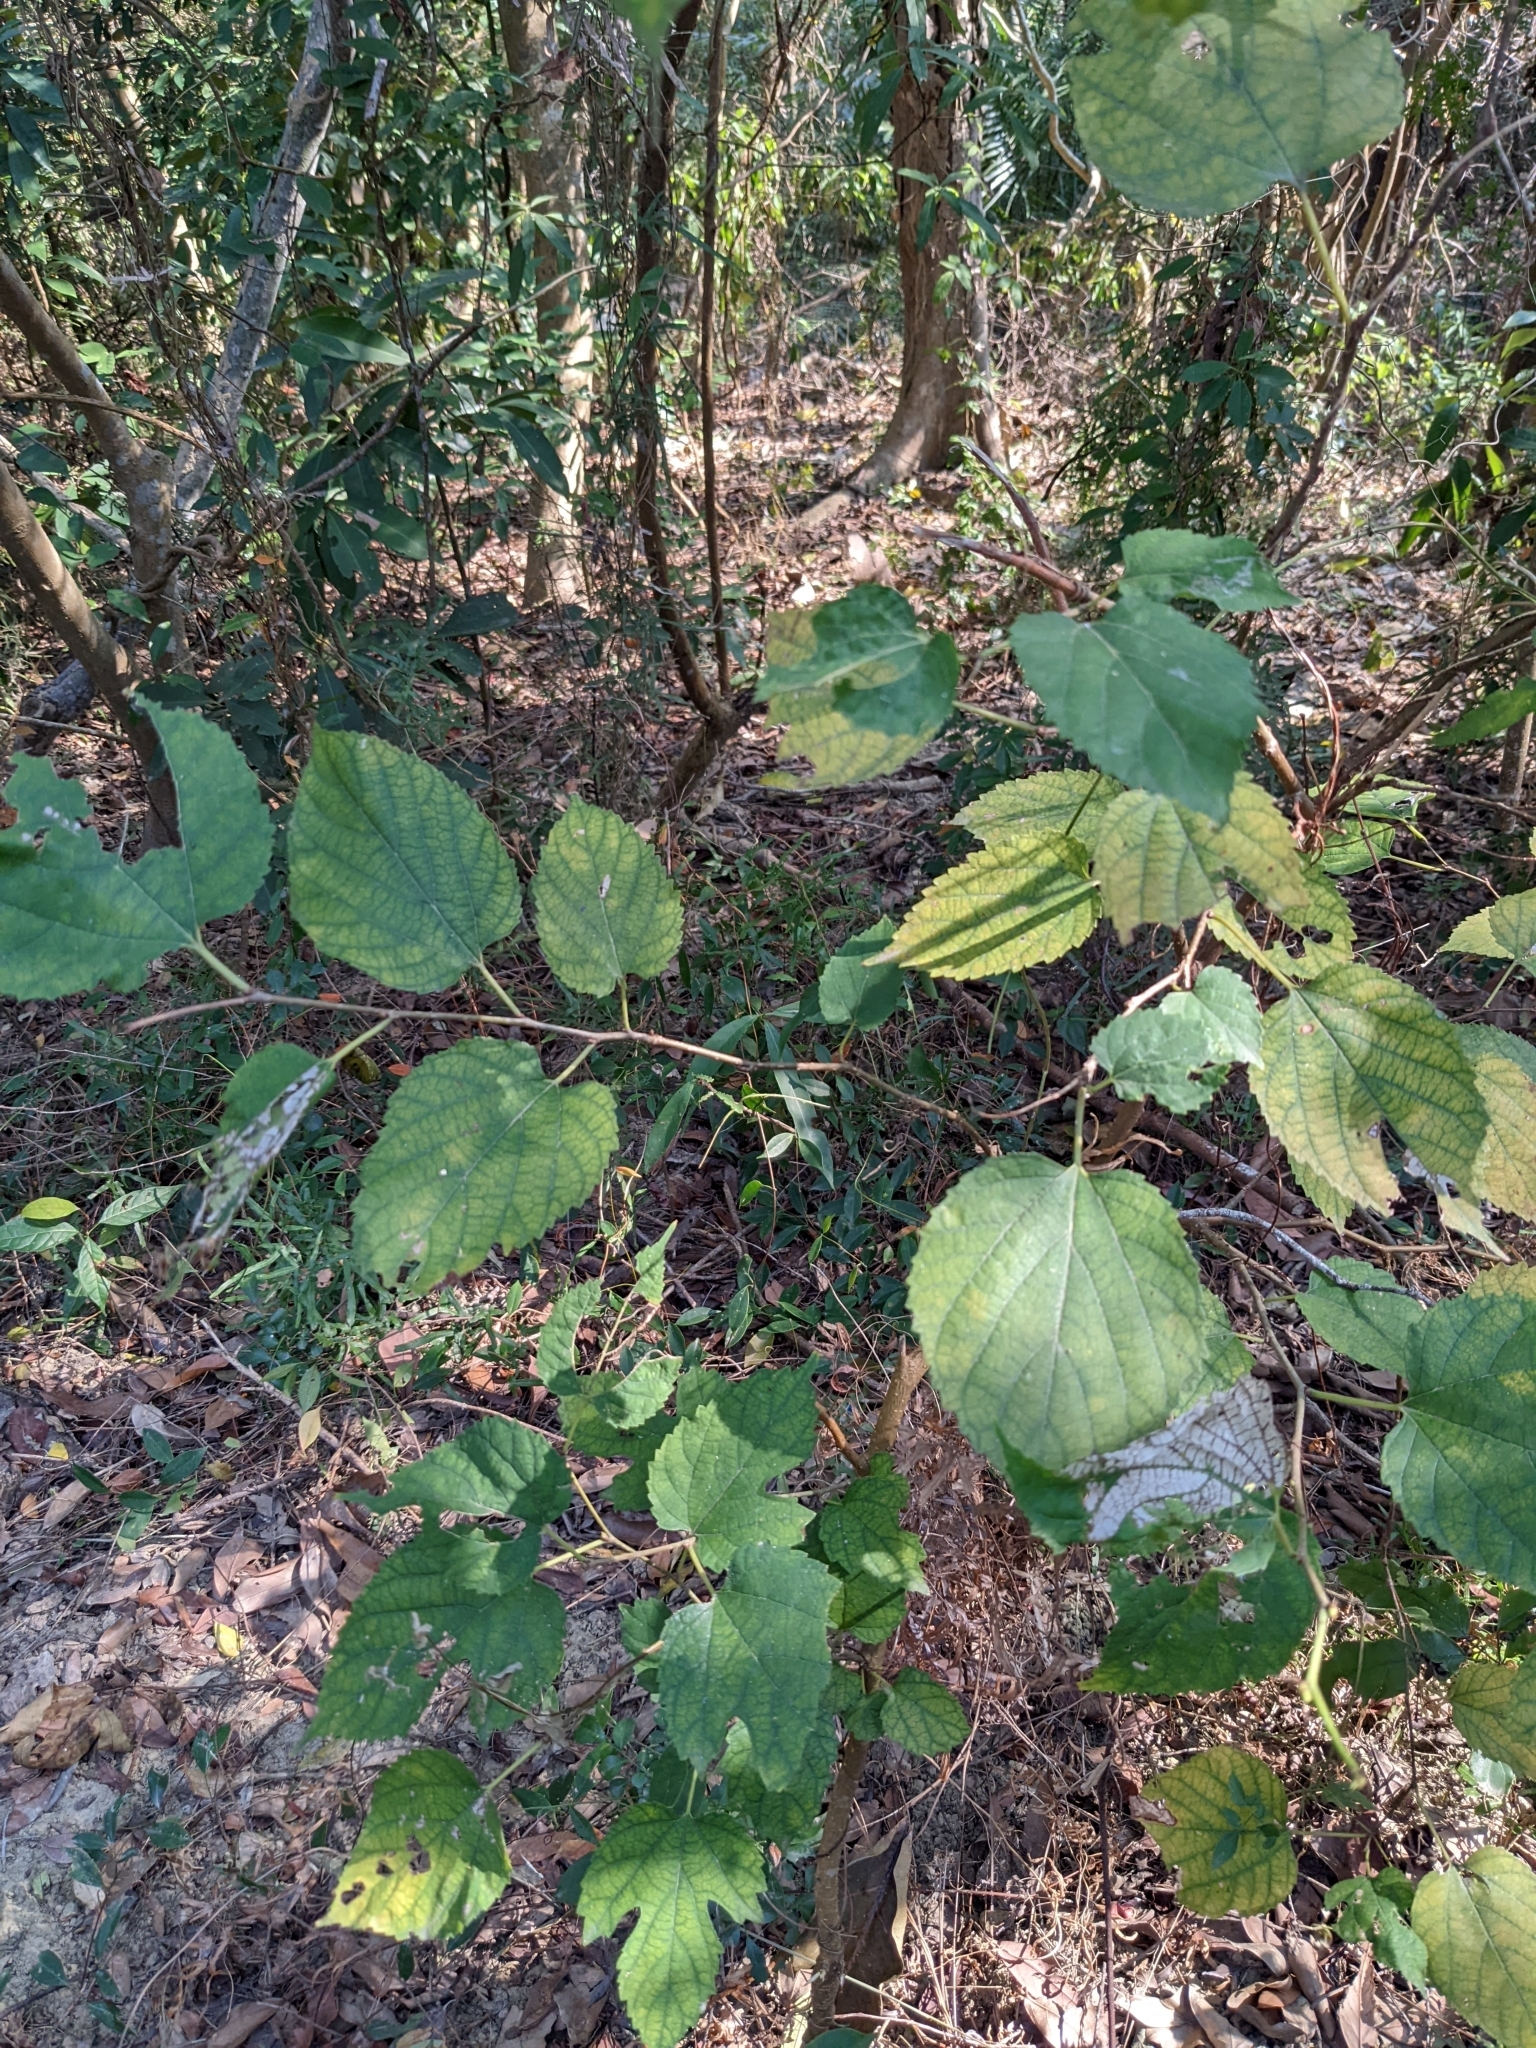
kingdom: Plantae
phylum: Tracheophyta
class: Magnoliopsida
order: Rosales
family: Moraceae
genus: Morus
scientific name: Morus indica
